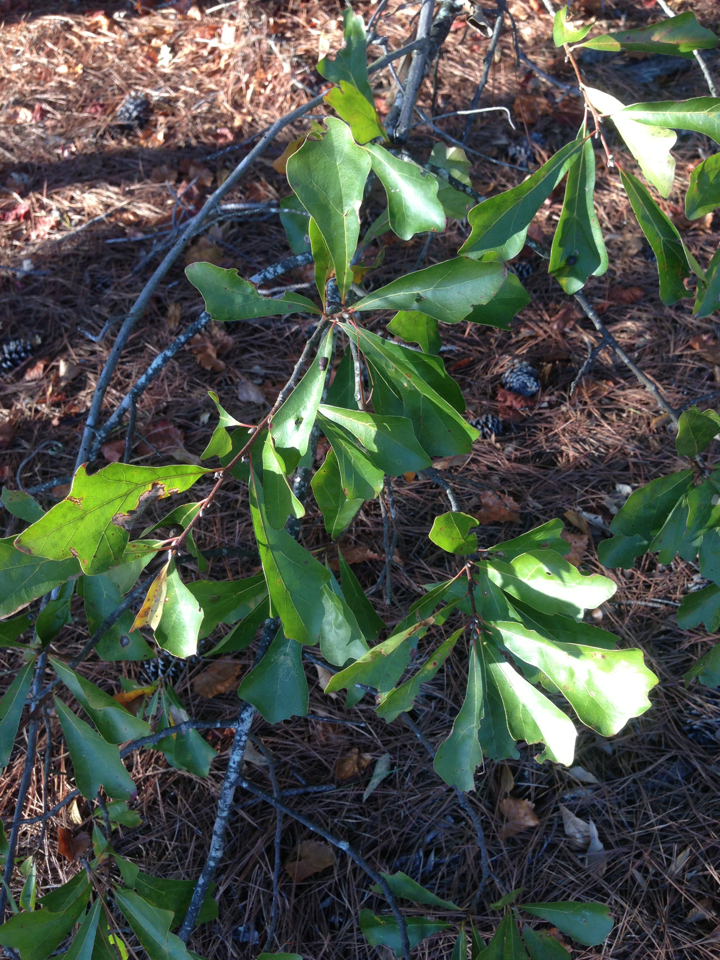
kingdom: Plantae
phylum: Tracheophyta
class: Magnoliopsida
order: Fagales
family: Fagaceae
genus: Quercus
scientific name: Quercus nigra
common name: Water oak
